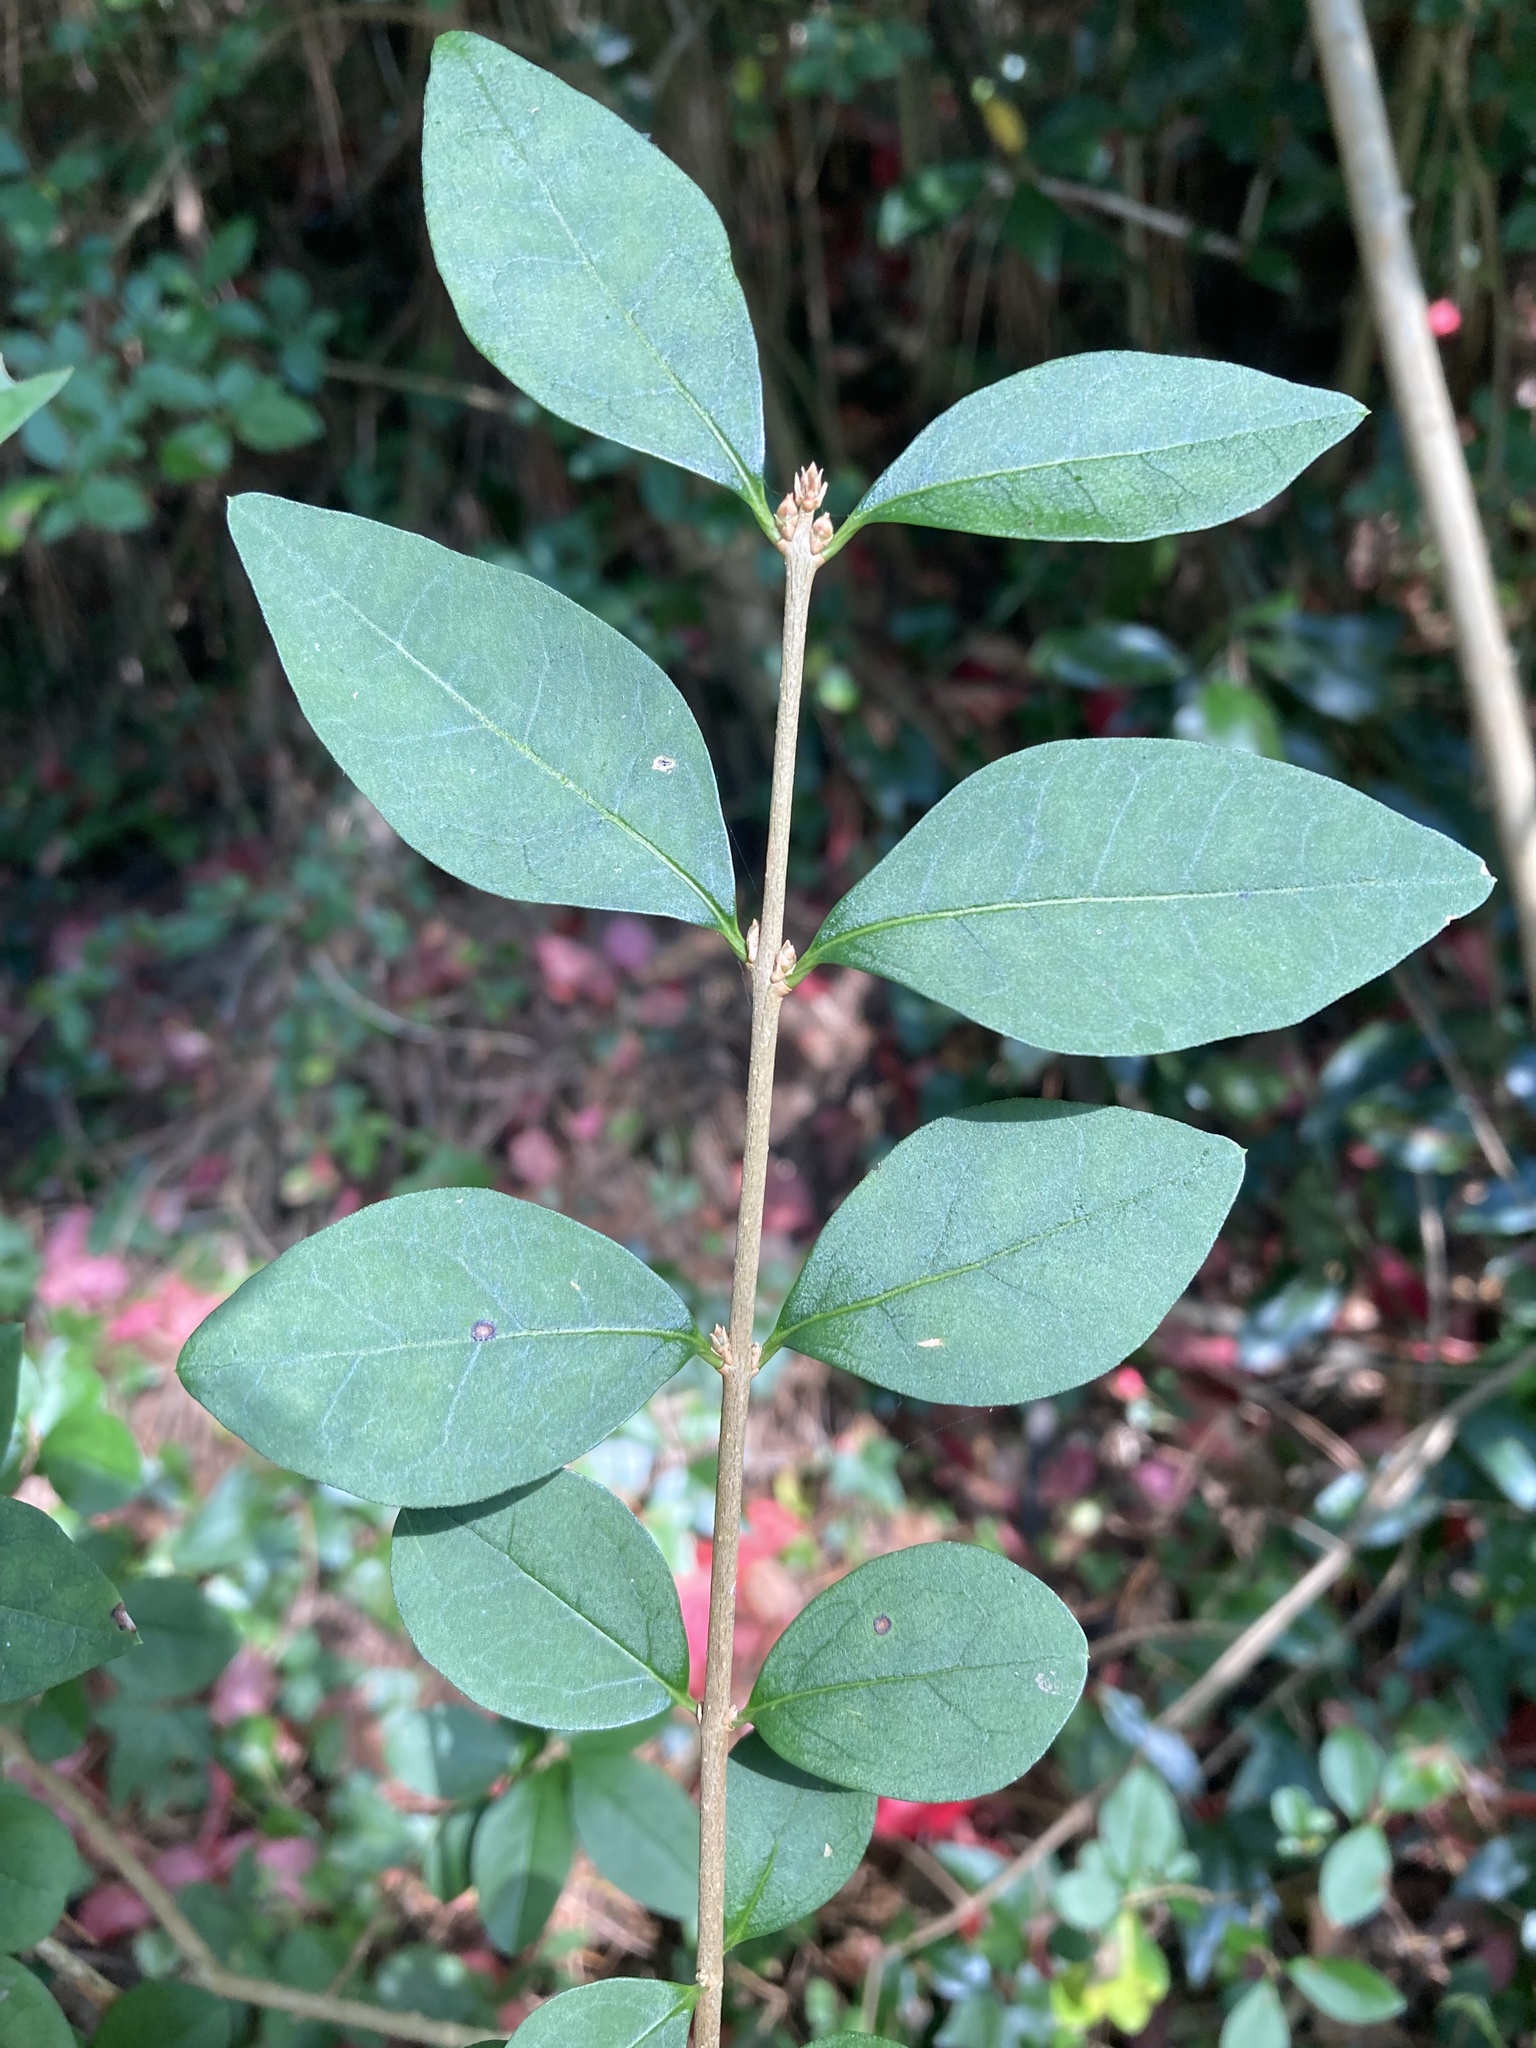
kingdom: Plantae
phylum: Tracheophyta
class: Magnoliopsida
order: Lamiales
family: Oleaceae
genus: Ligustrum
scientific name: Ligustrum ovalifolium
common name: California privet
